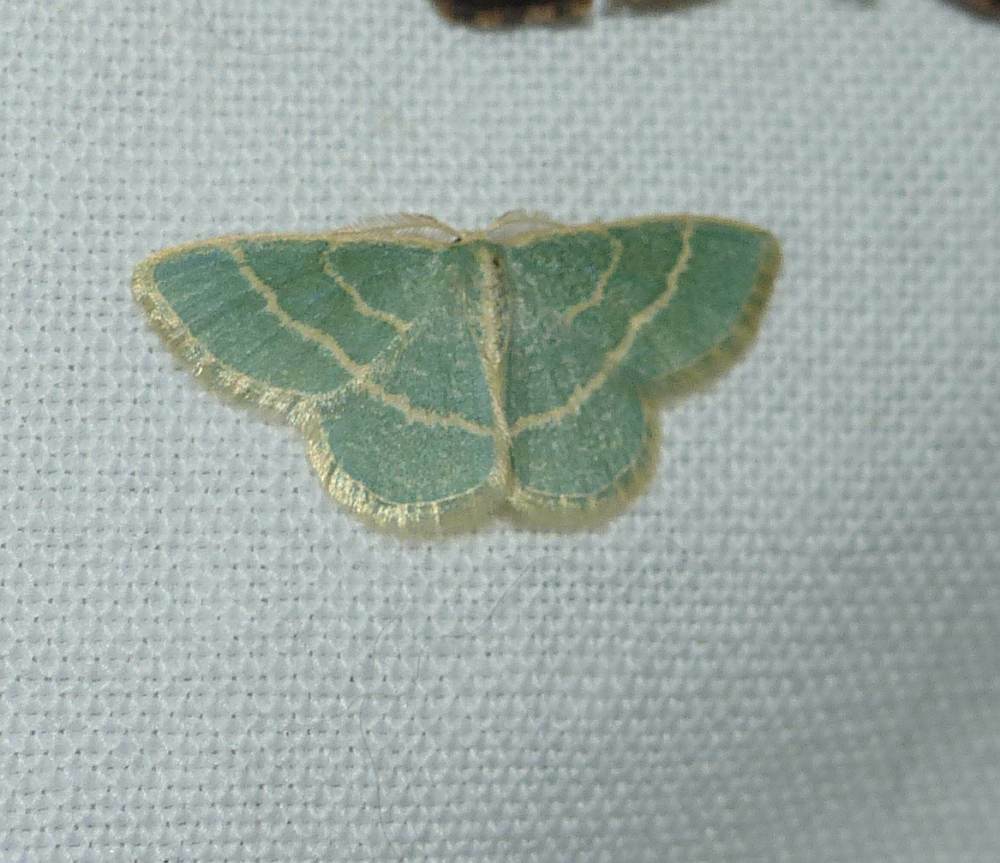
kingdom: Animalia
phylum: Arthropoda
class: Insecta
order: Lepidoptera
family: Geometridae
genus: Chlorochlamys
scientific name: Chlorochlamys chloroleucaria
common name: Blackberry looper
